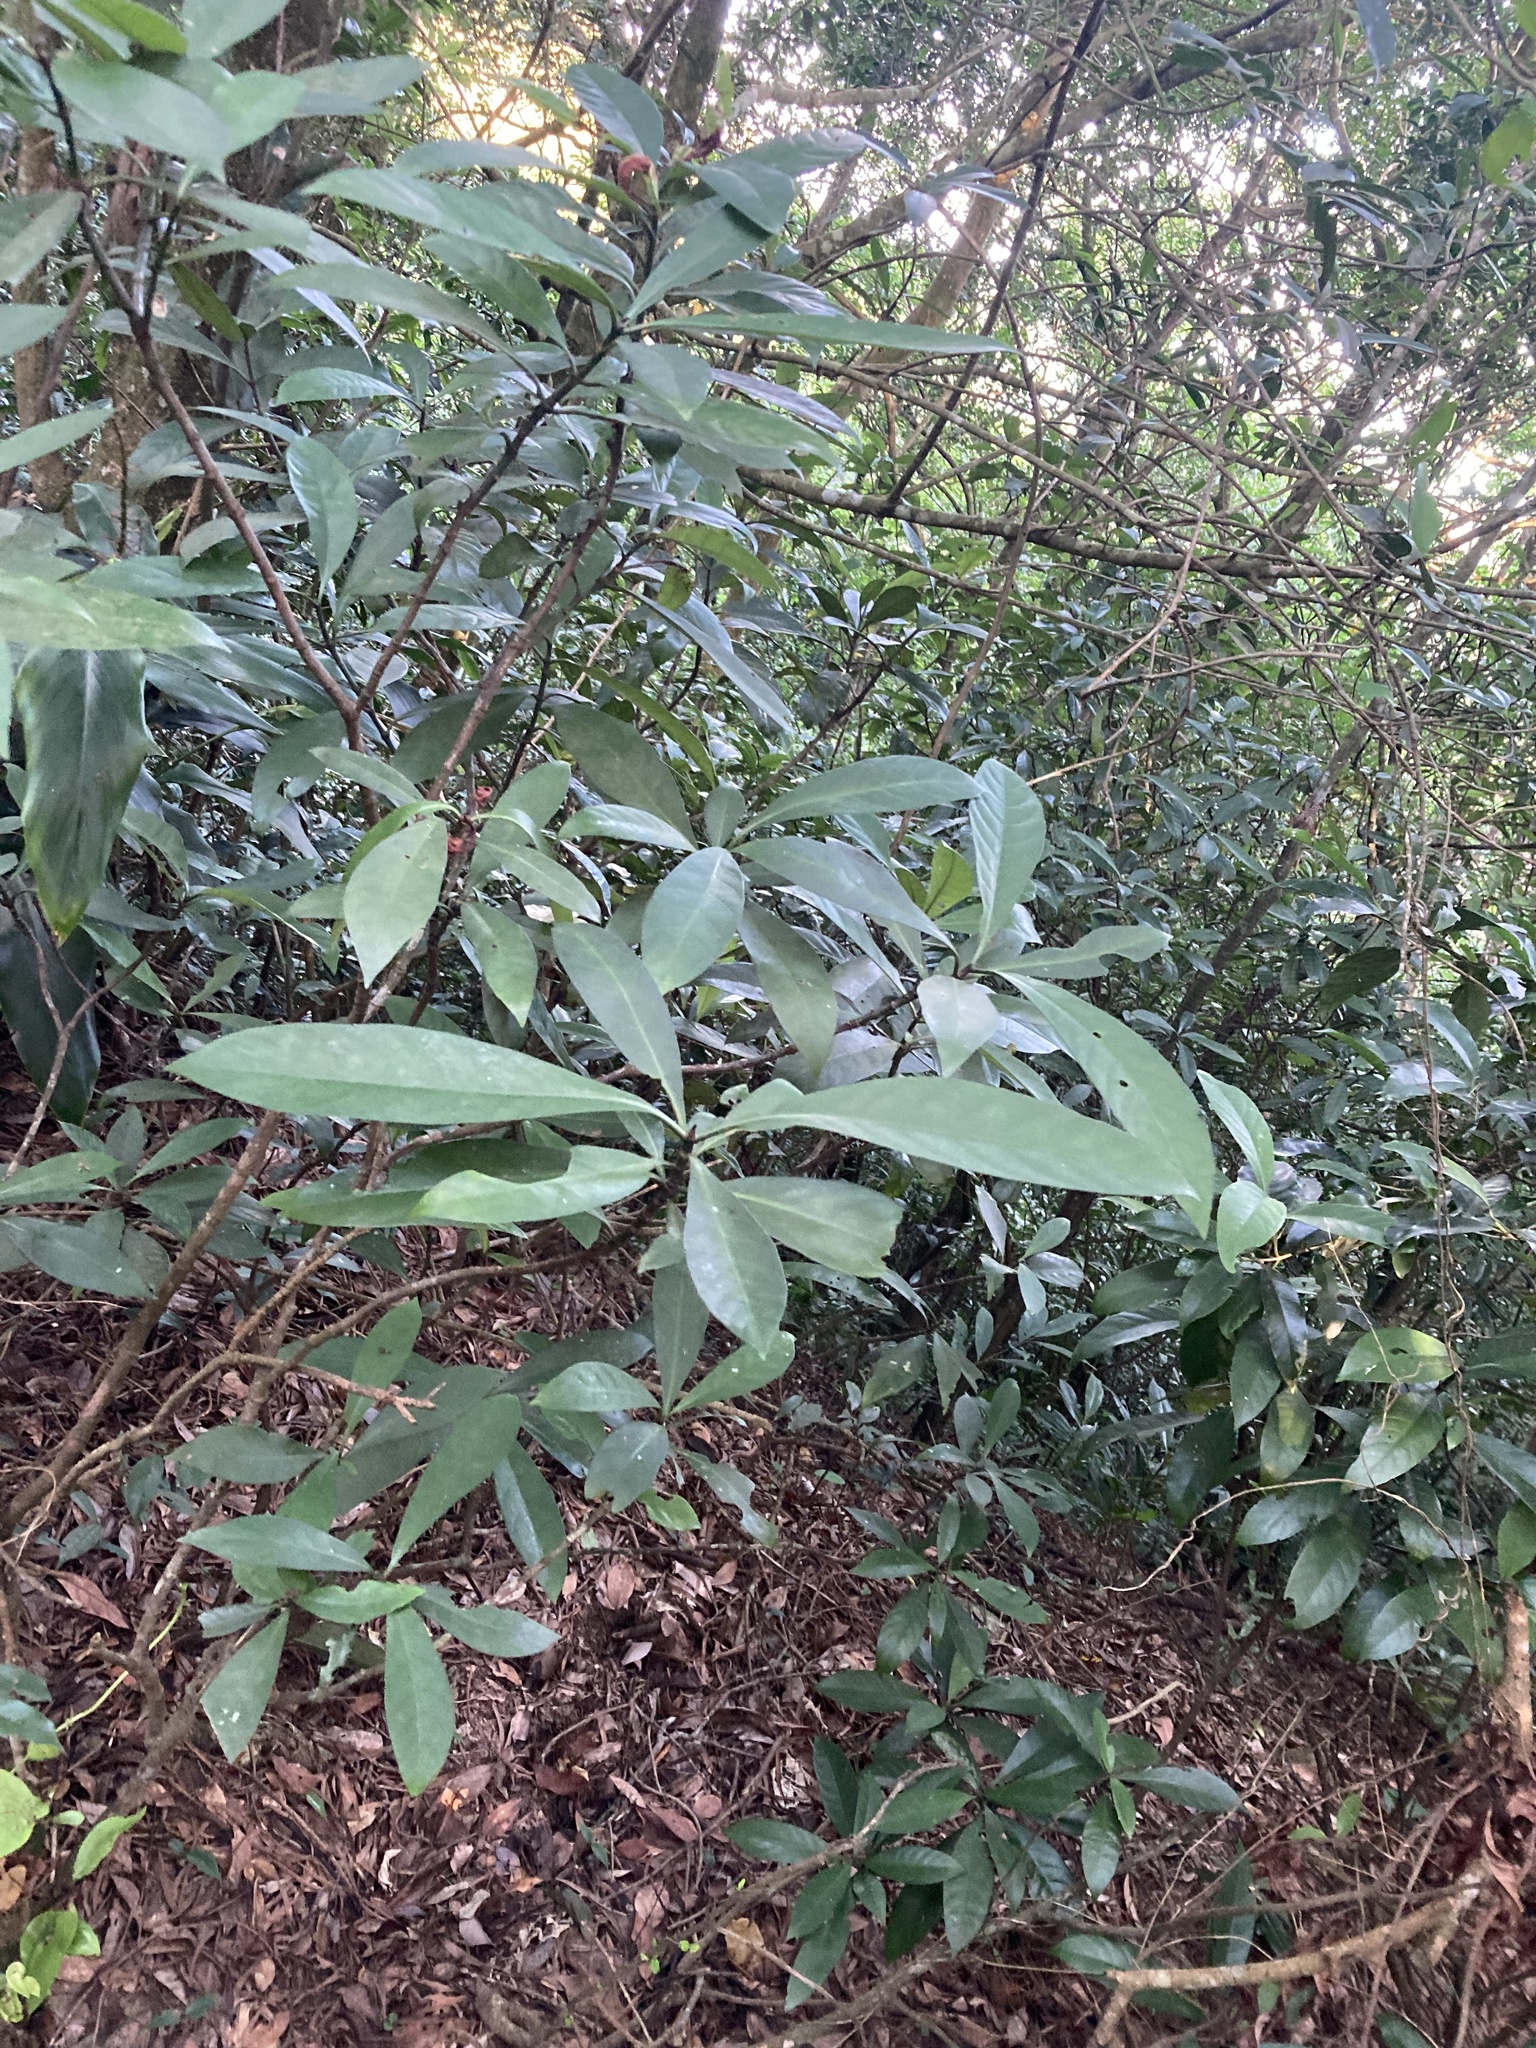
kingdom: Plantae
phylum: Tracheophyta
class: Magnoliopsida
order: Gentianales
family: Rubiaceae
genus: Psychotria
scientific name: Psychotria asiatica
